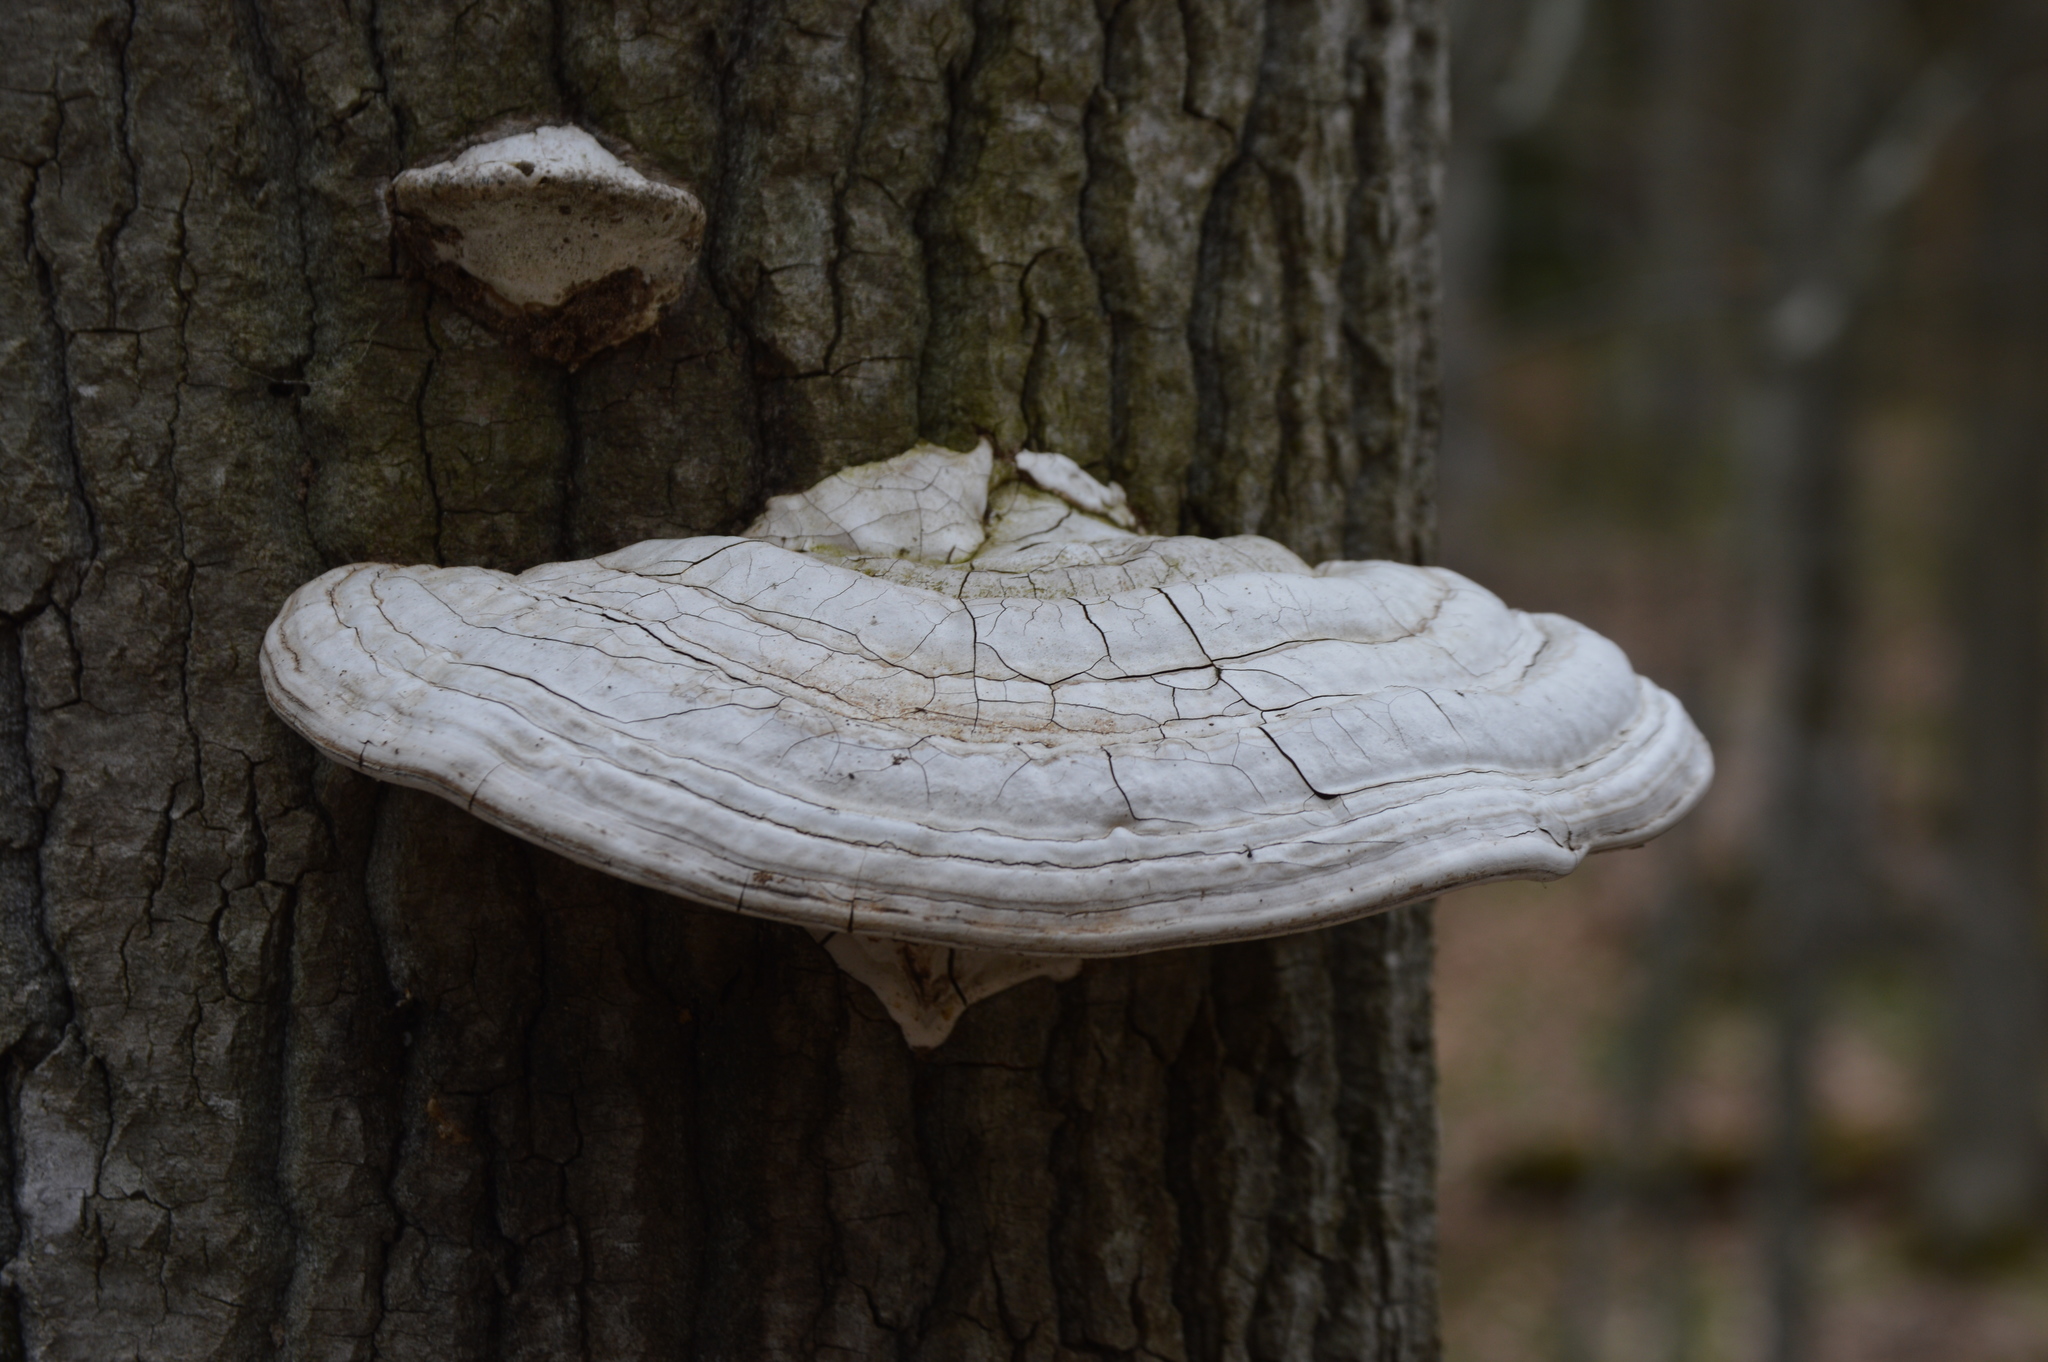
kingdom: Fungi
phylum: Basidiomycota
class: Agaricomycetes
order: Polyporales
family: Polyporaceae
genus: Ganoderma
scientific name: Ganoderma applanatum
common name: Artist's bracket
